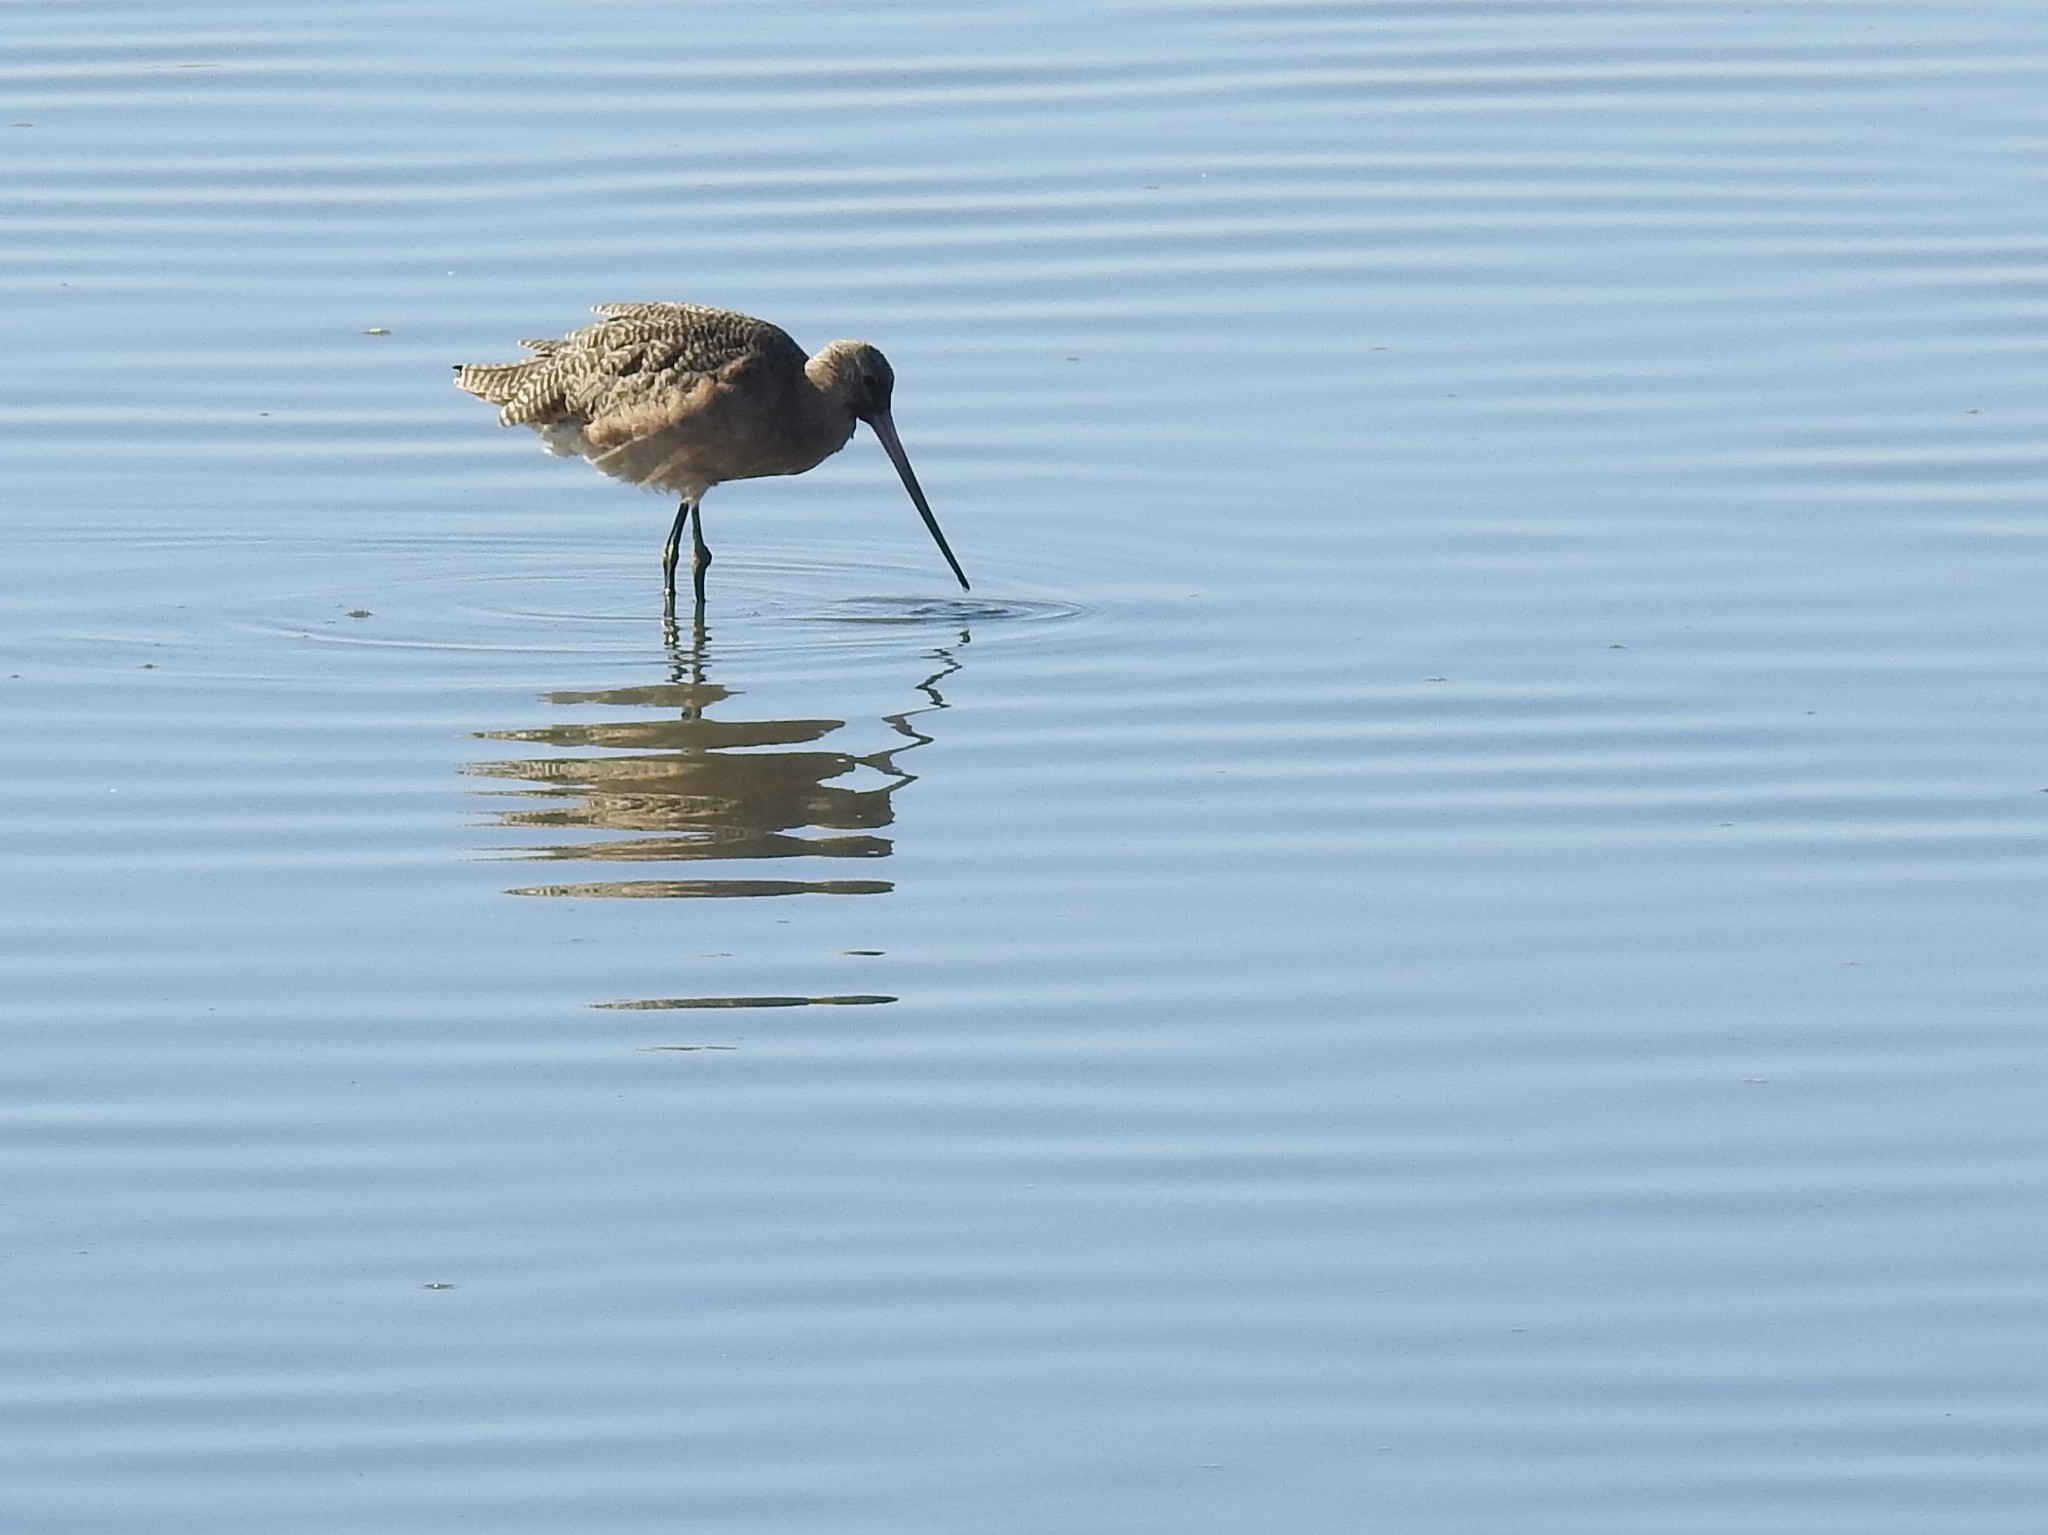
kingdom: Animalia
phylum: Chordata
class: Aves
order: Charadriiformes
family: Scolopacidae
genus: Limosa
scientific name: Limosa fedoa
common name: Marbled godwit
